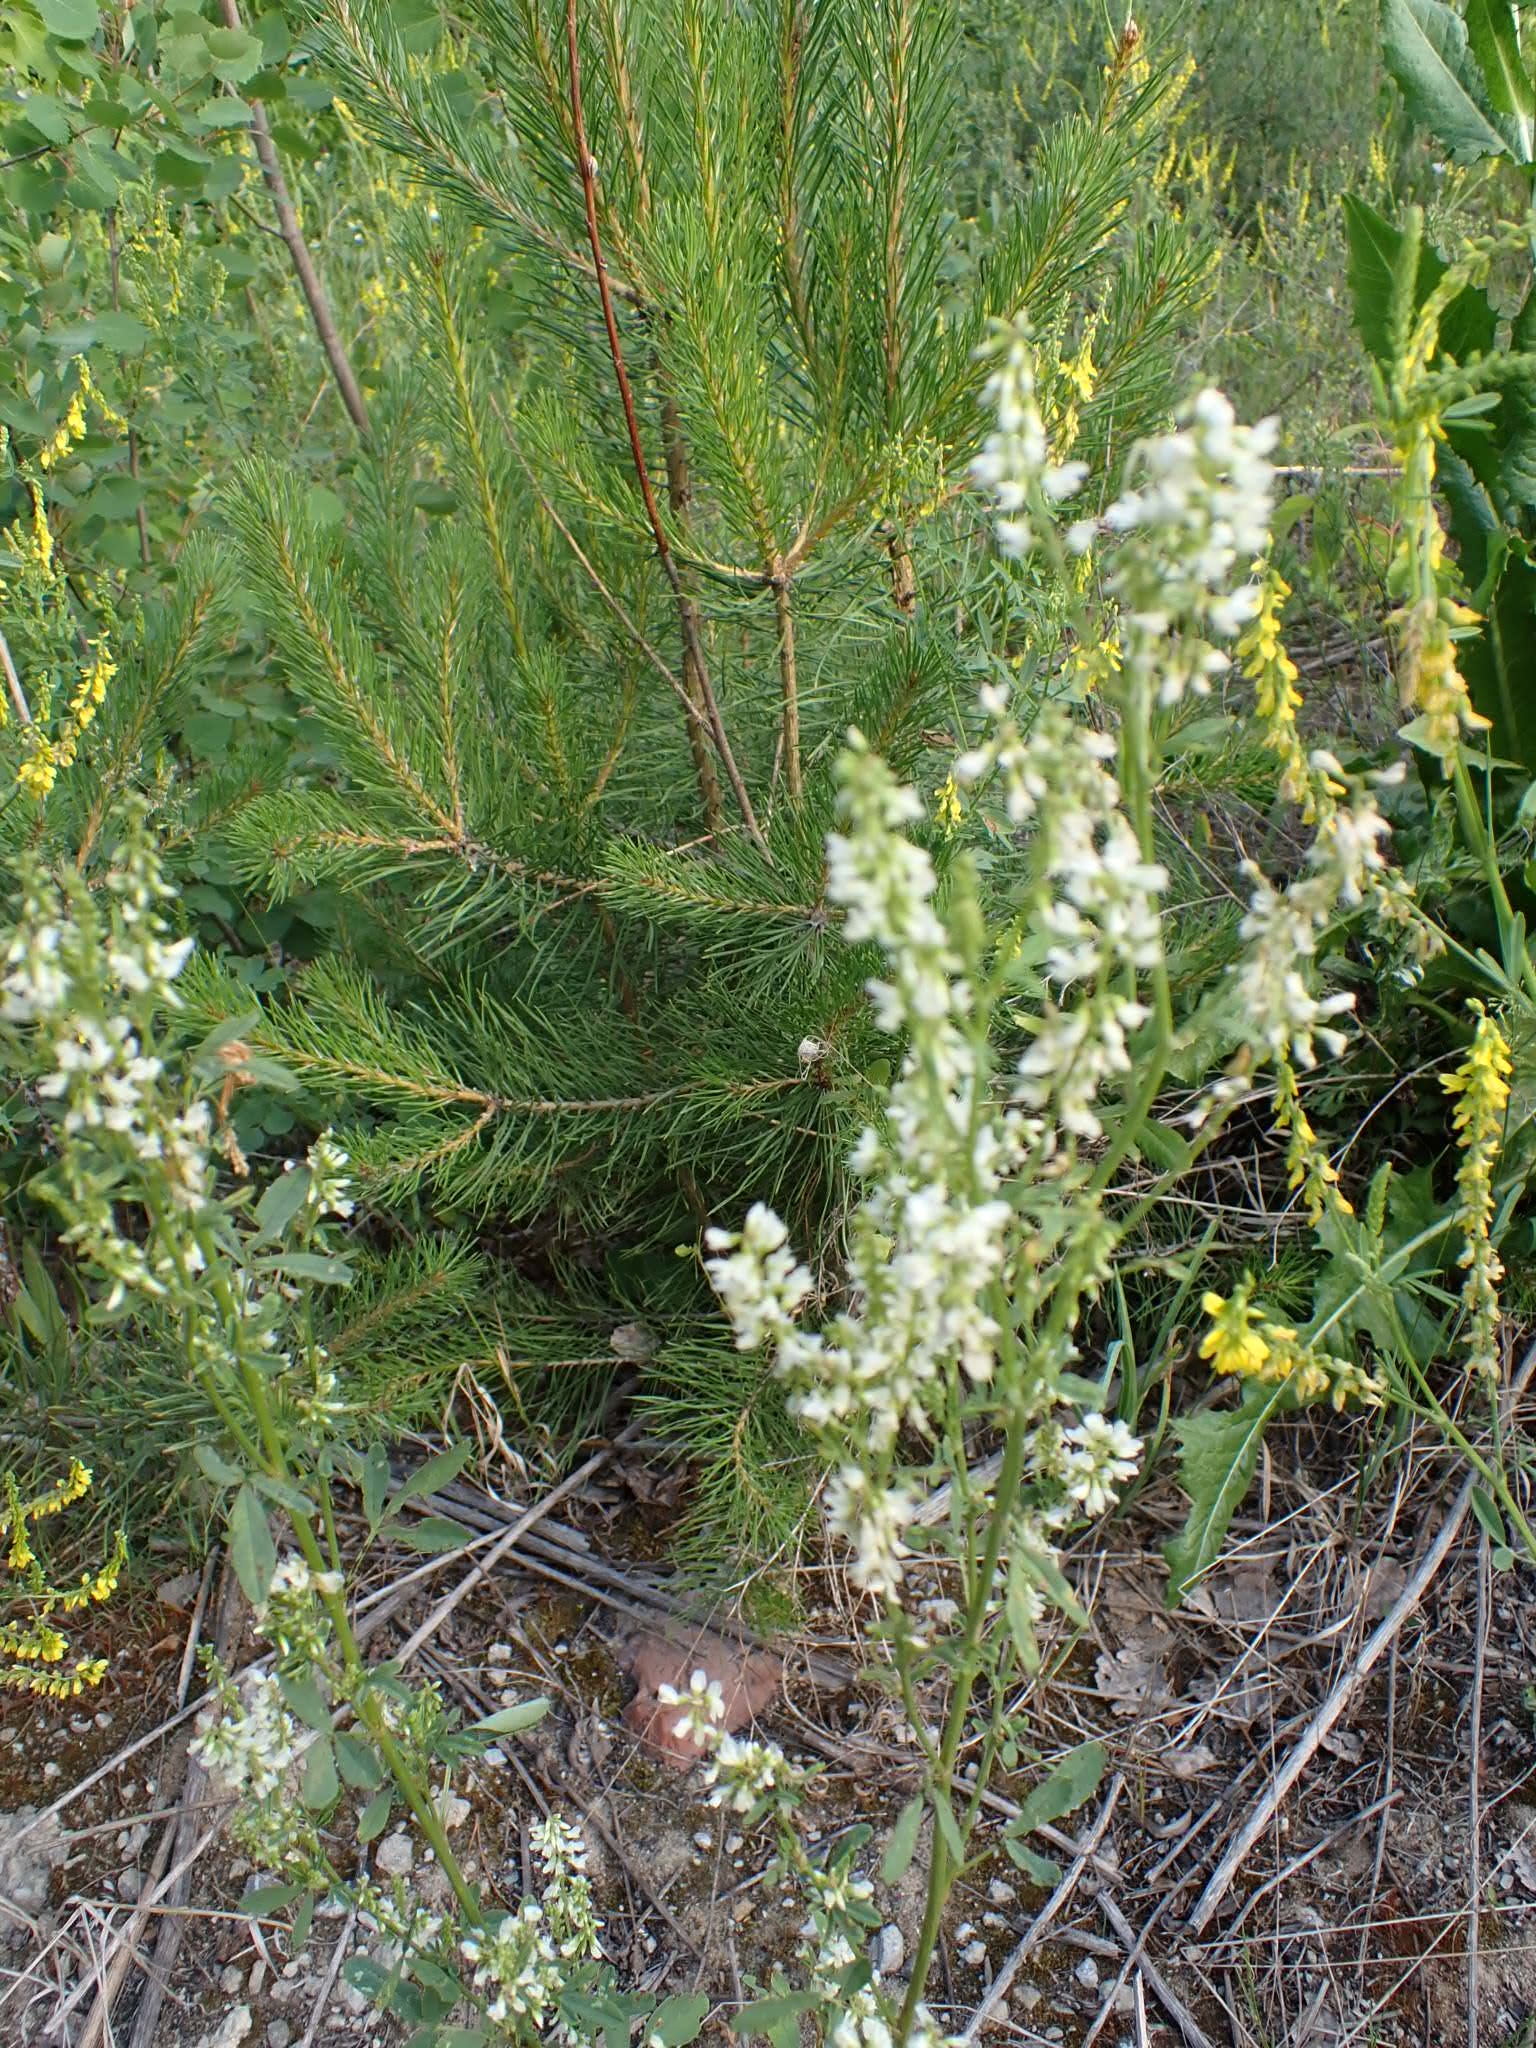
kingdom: Plantae
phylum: Tracheophyta
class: Magnoliopsida
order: Fabales
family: Fabaceae
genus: Melilotus
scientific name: Melilotus albus
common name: White melilot
